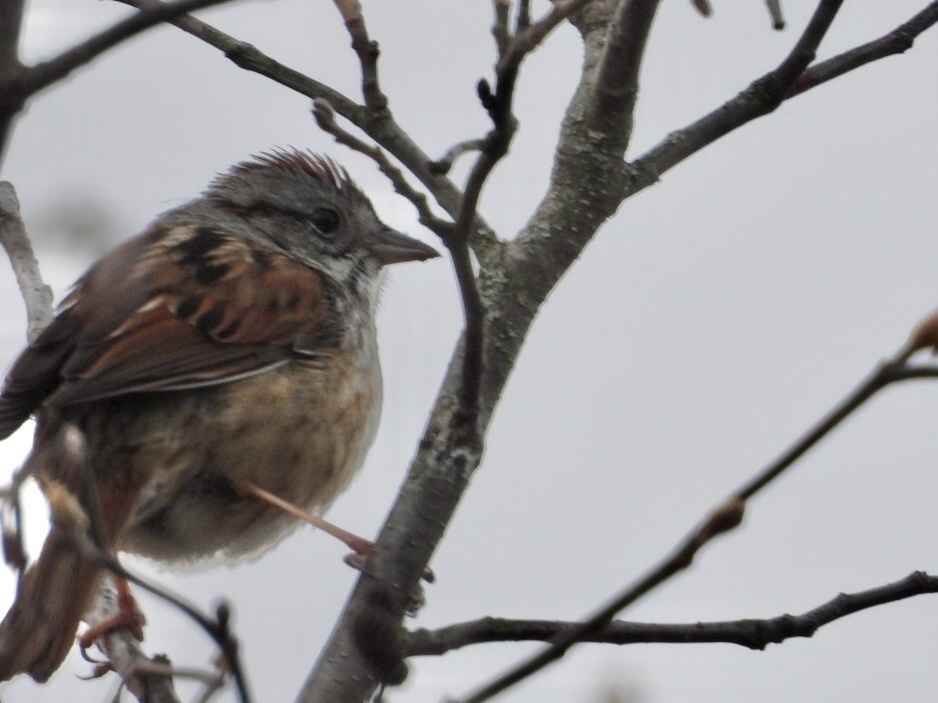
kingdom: Animalia
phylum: Chordata
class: Aves
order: Passeriformes
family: Passerellidae
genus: Melospiza
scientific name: Melospiza georgiana
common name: Swamp sparrow
